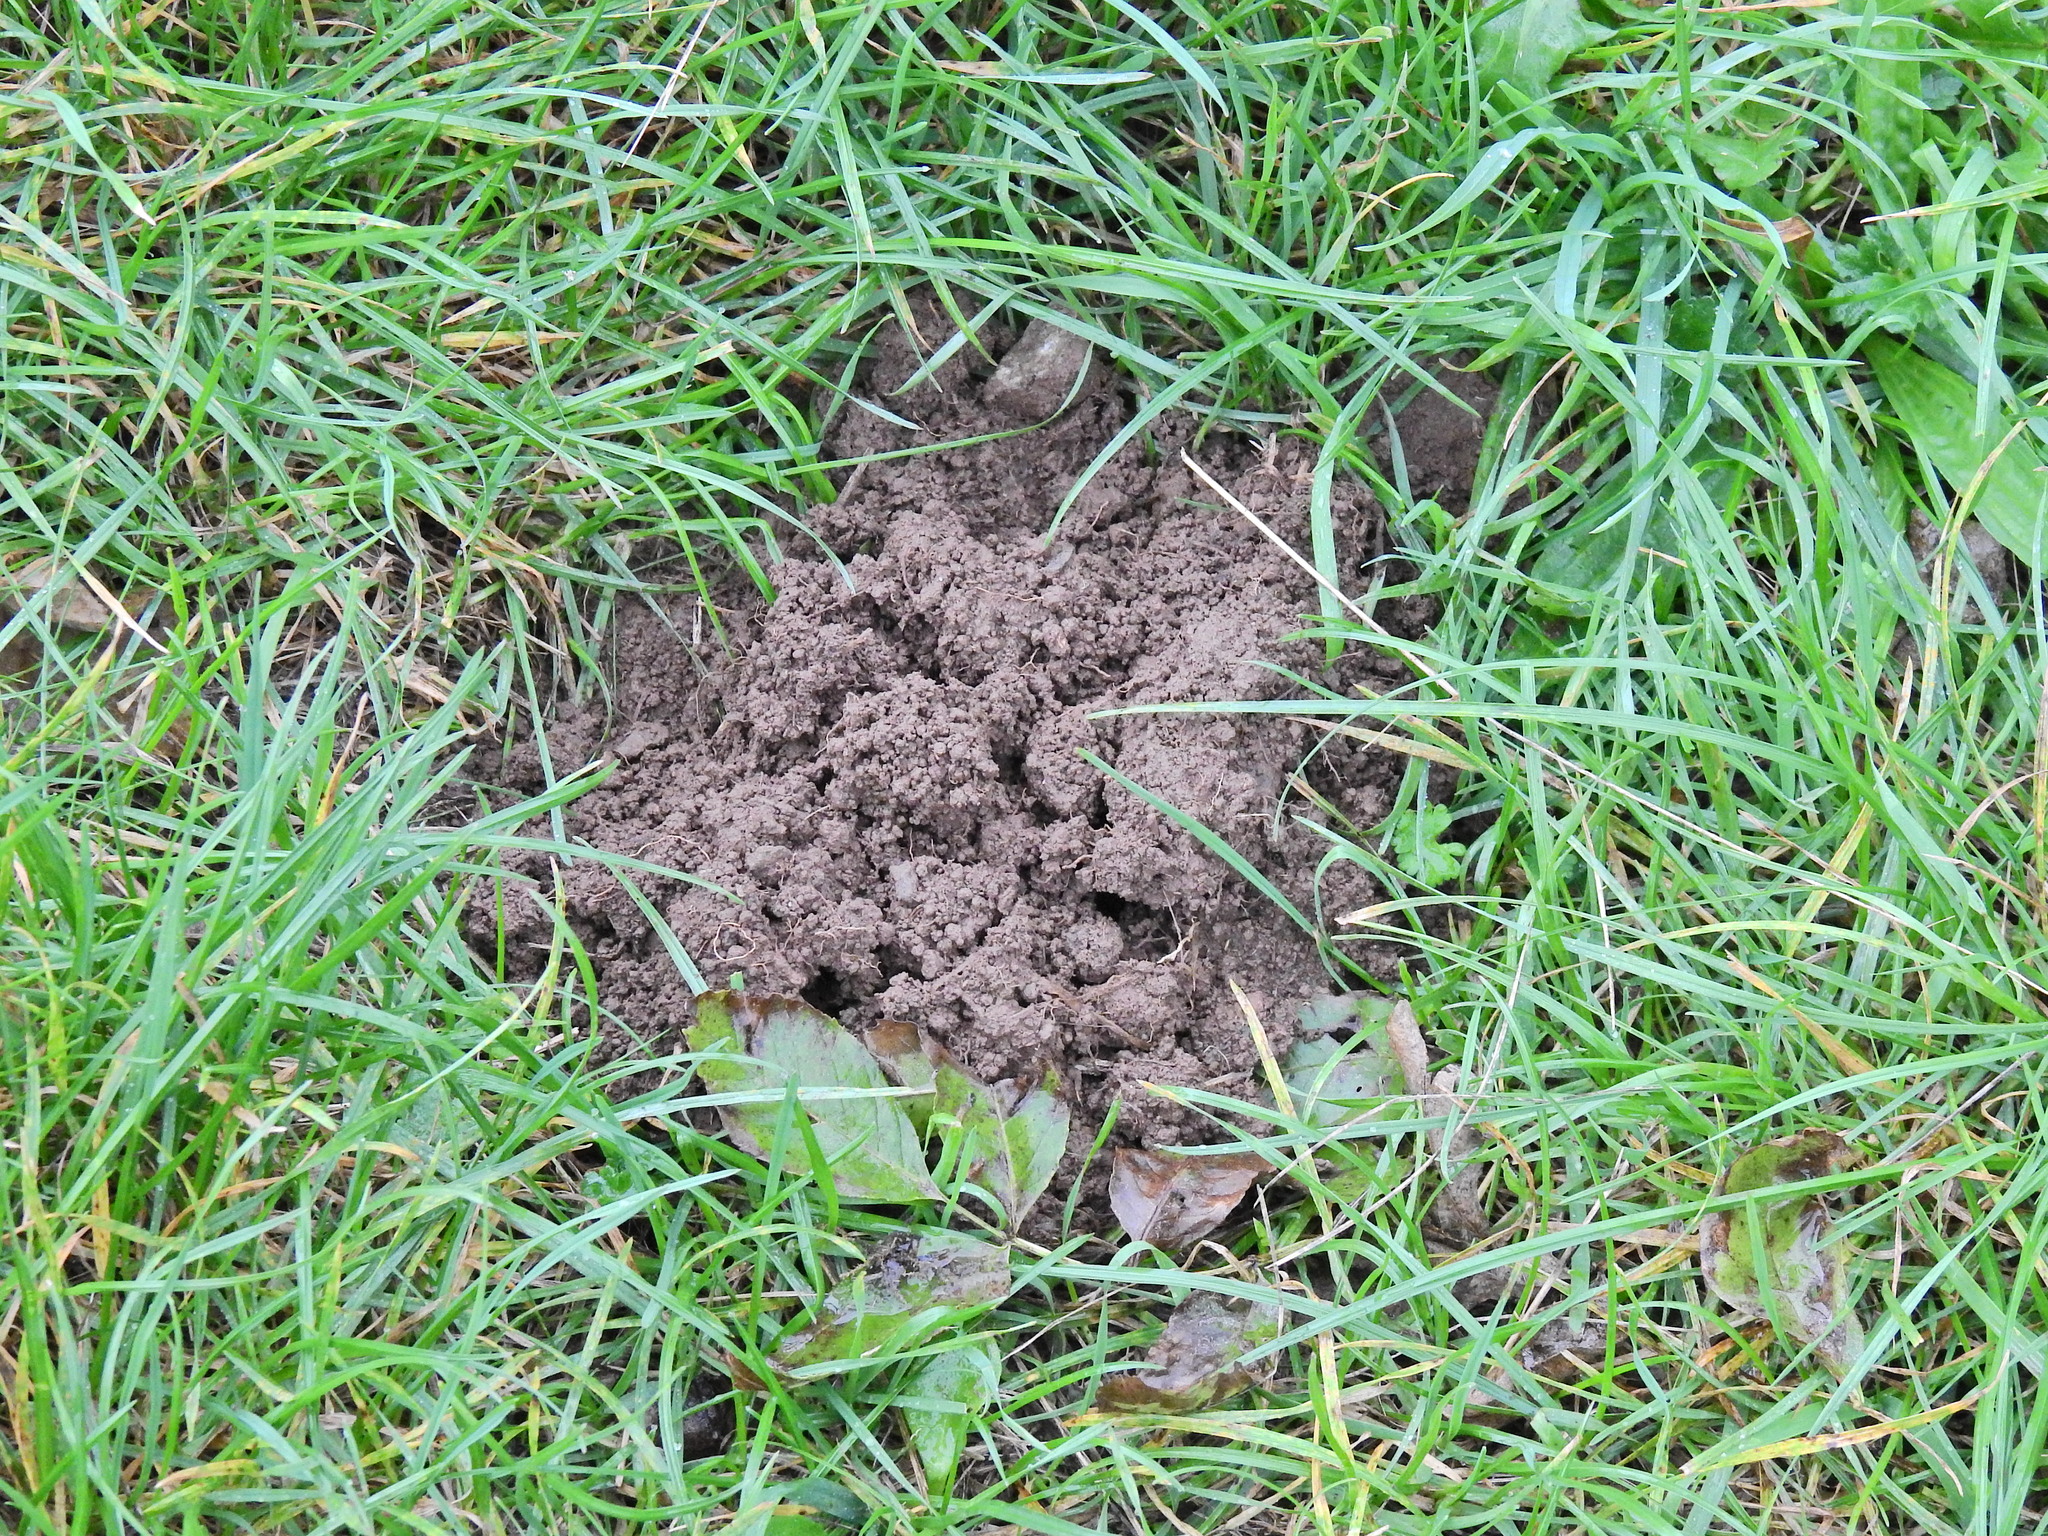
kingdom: Animalia
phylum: Chordata
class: Mammalia
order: Soricomorpha
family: Talpidae
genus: Talpa
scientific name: Talpa europaea
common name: European mole
